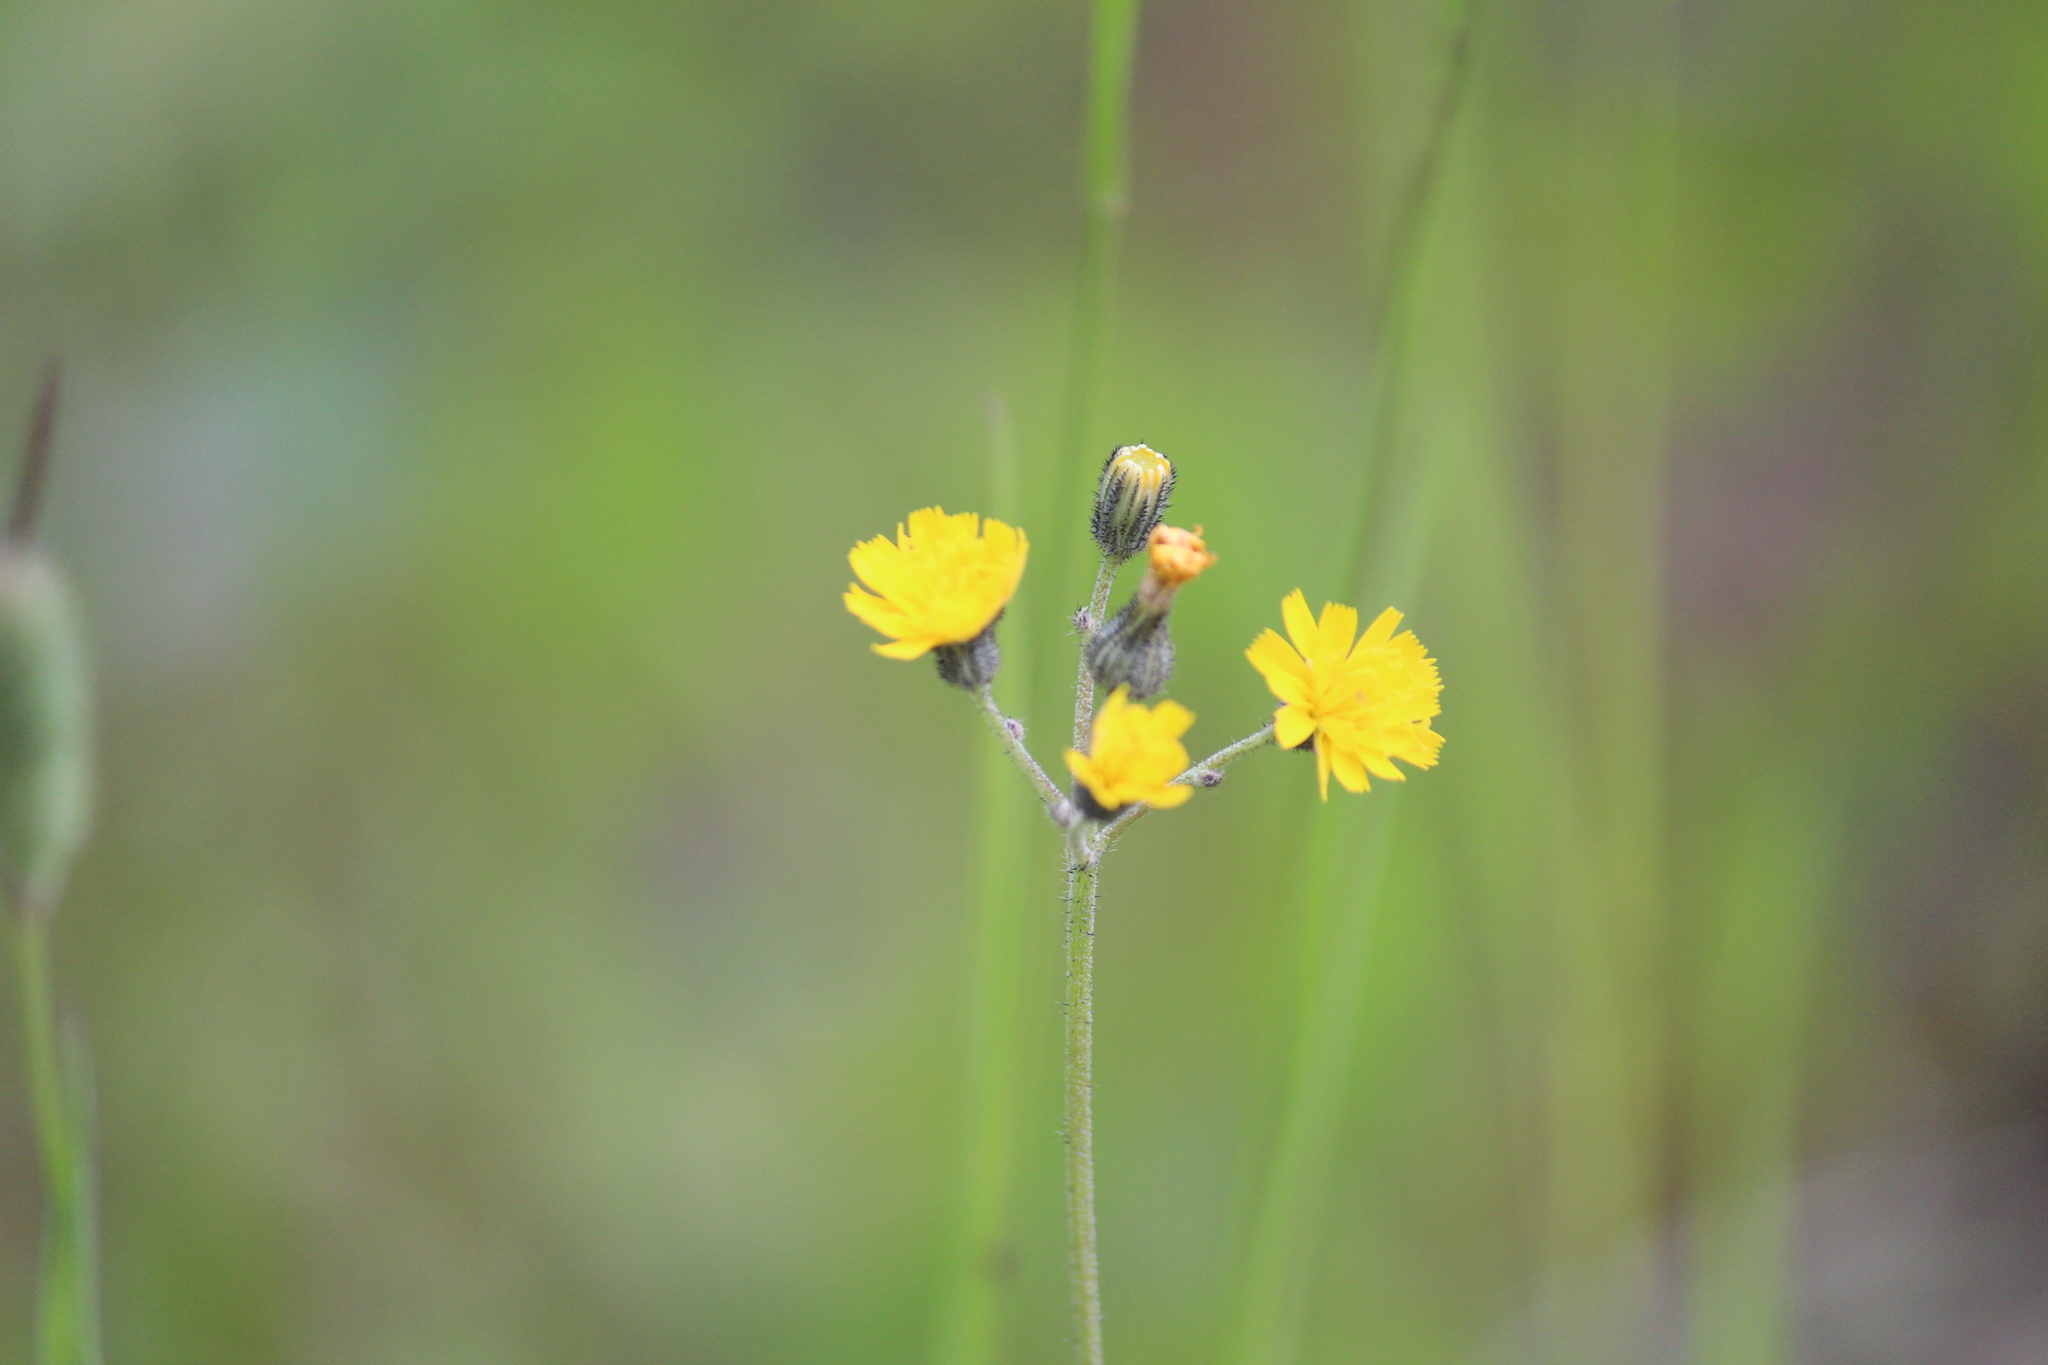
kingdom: Plantae
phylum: Tracheophyta
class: Magnoliopsida
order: Asterales
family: Asteraceae
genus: Pilosella
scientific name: Pilosella
